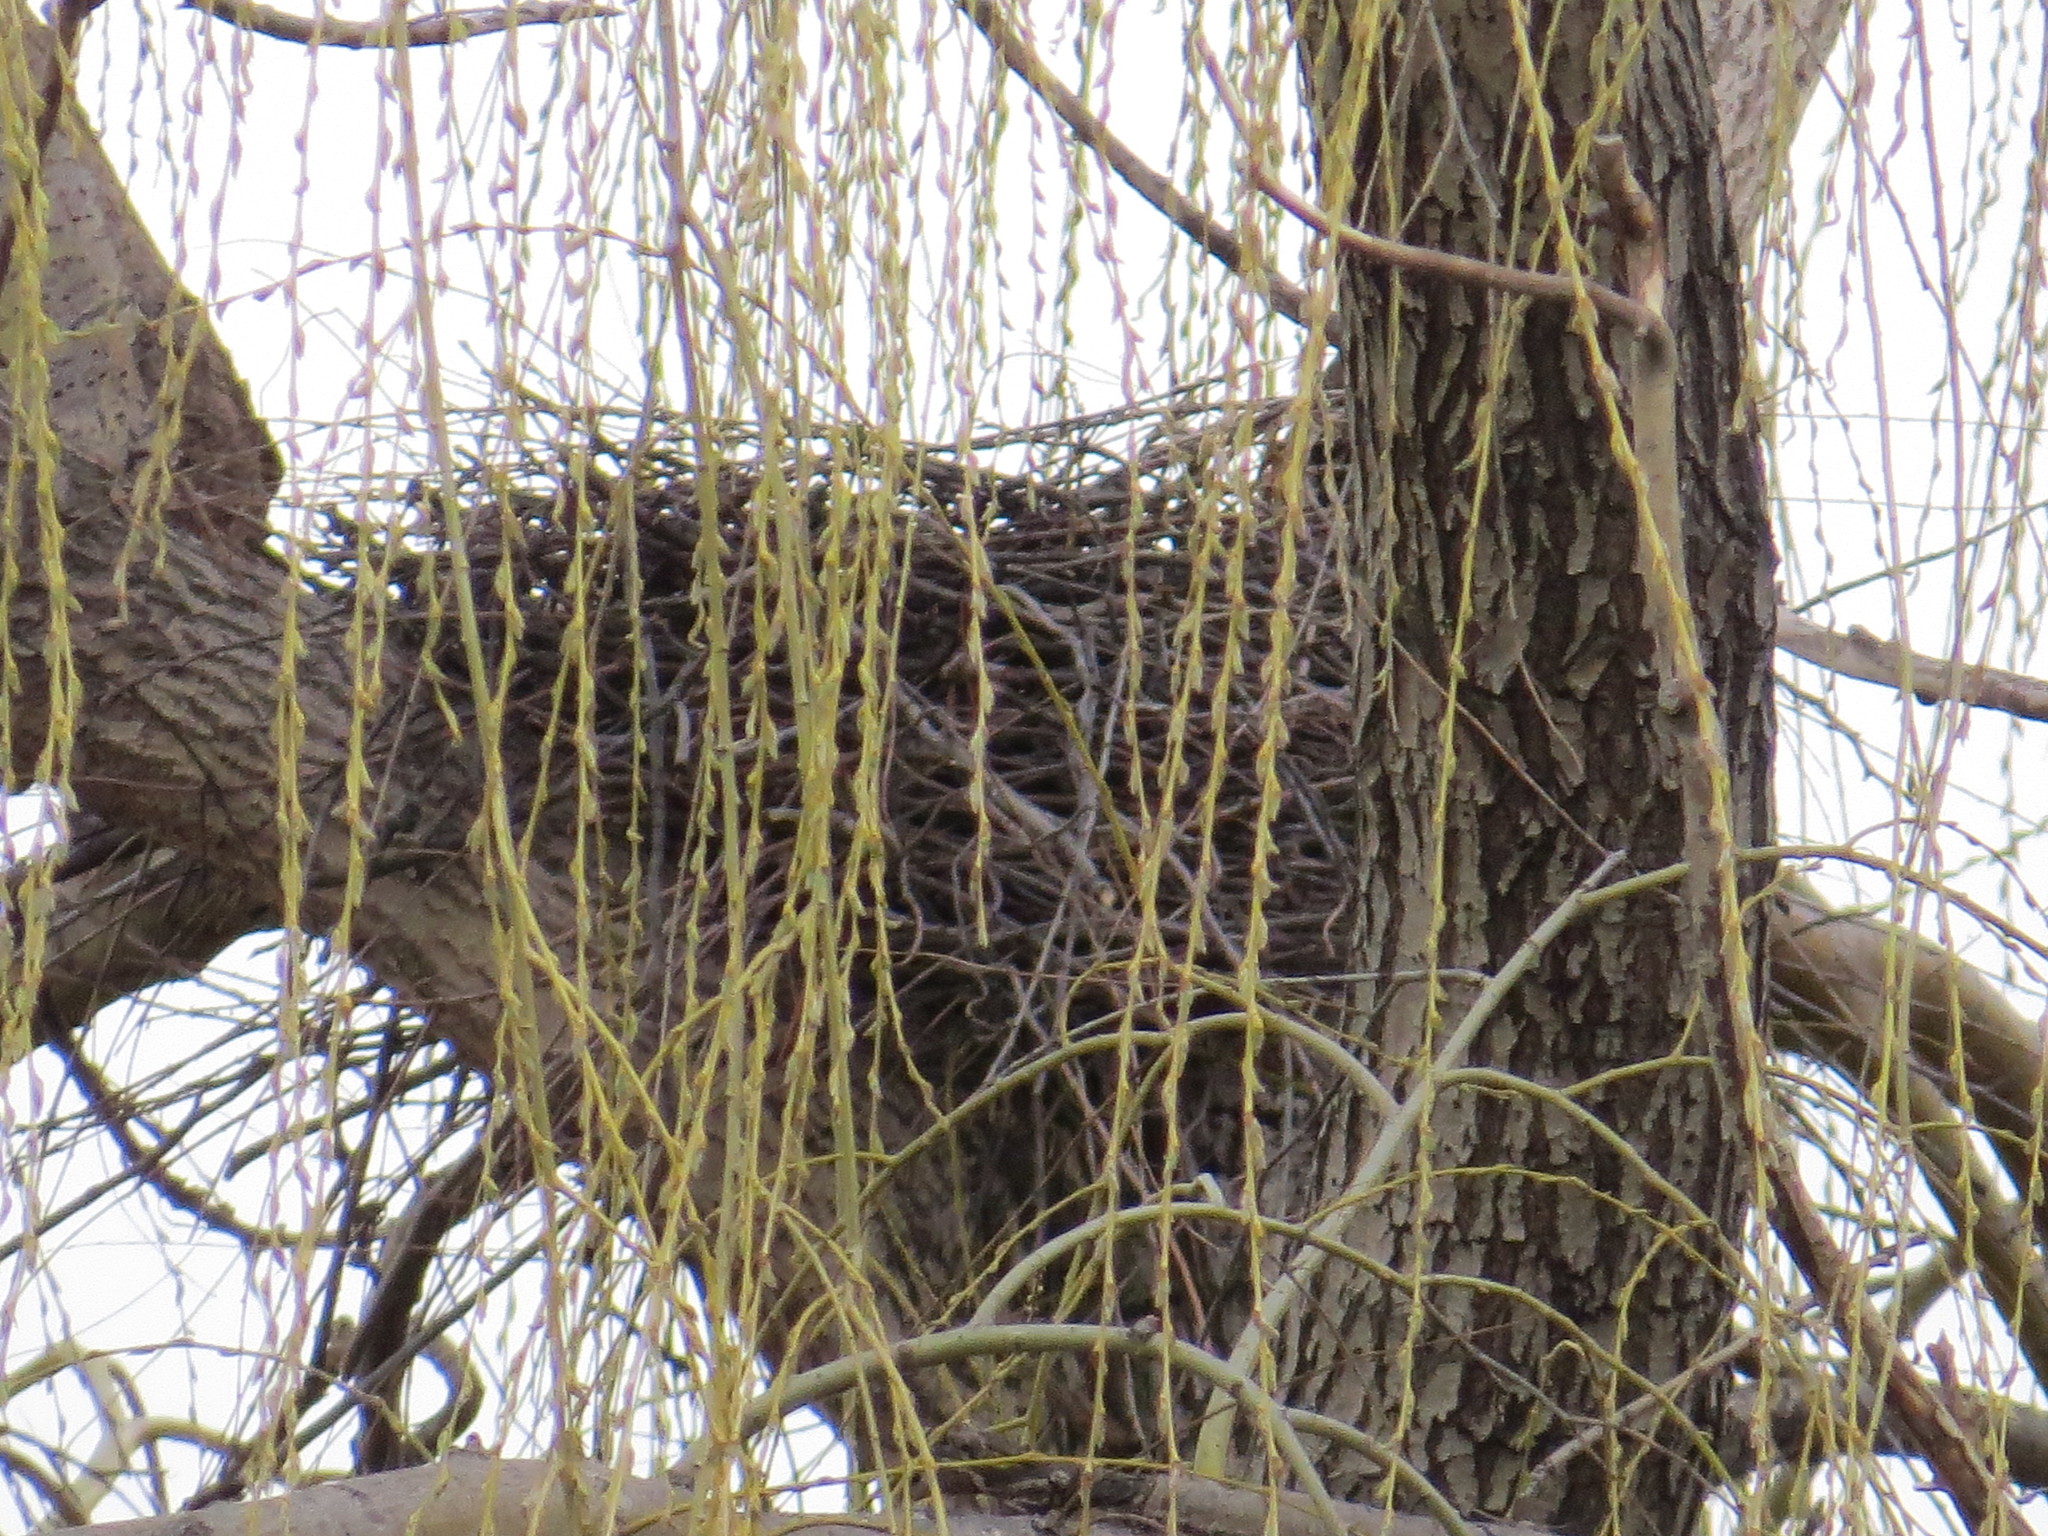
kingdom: Animalia
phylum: Chordata
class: Aves
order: Accipitriformes
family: Accipitridae
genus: Accipiter
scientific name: Accipiter cooperii
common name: Cooper's hawk
